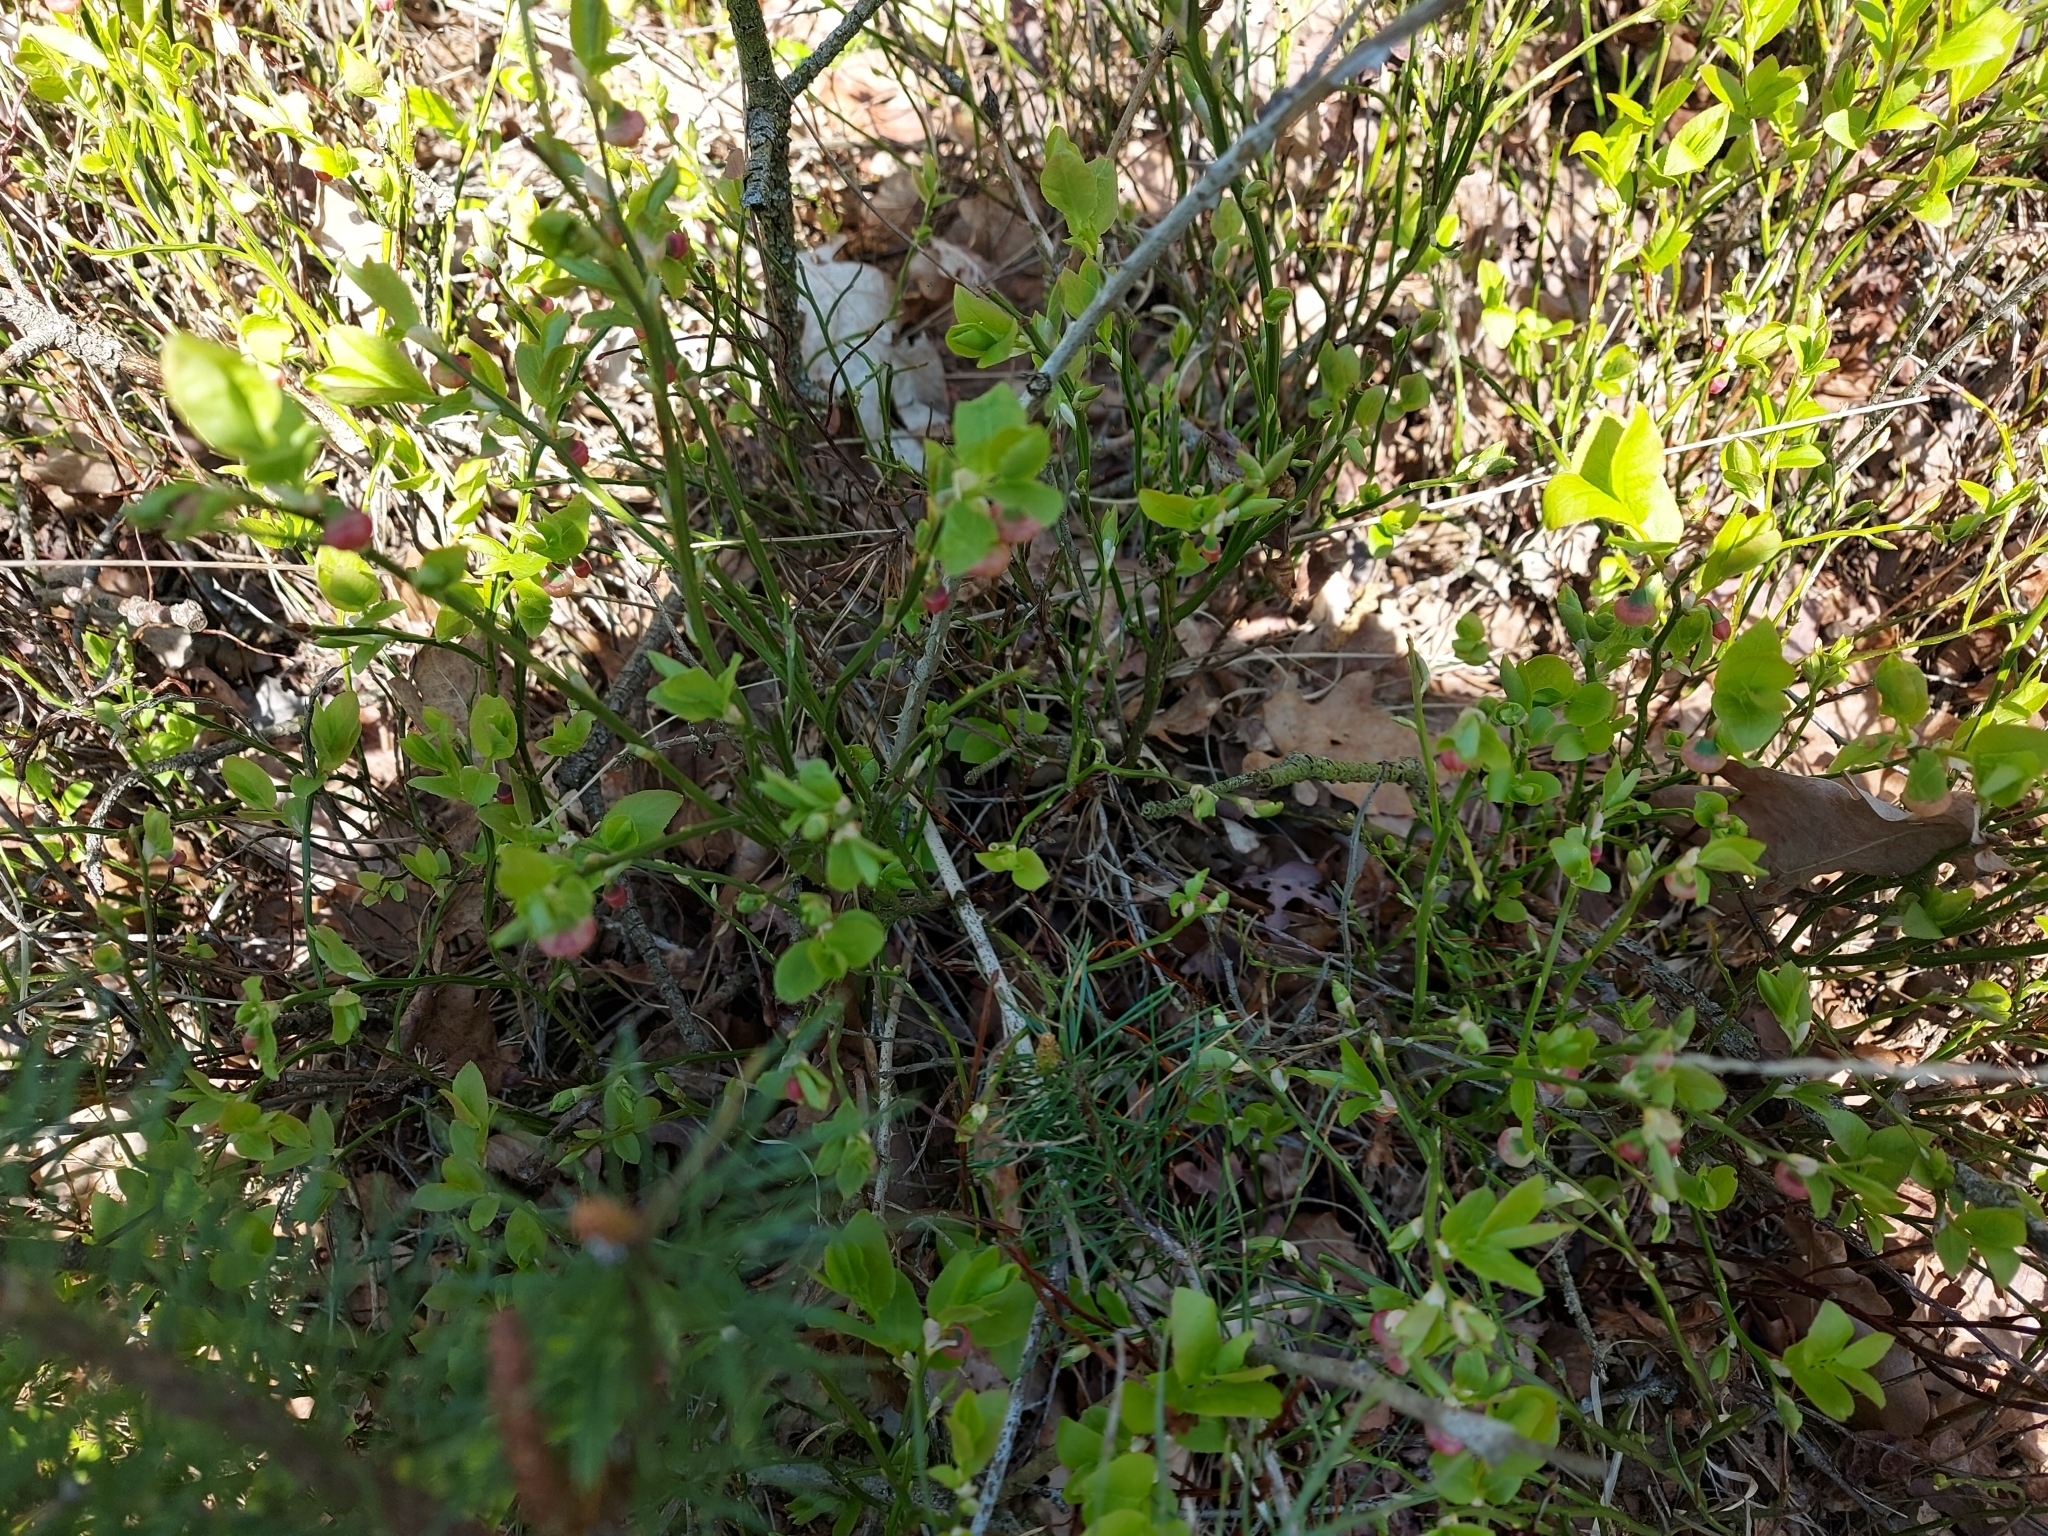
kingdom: Plantae
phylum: Tracheophyta
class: Magnoliopsida
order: Ericales
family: Ericaceae
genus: Vaccinium
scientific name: Vaccinium myrtillus
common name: Bilberry
